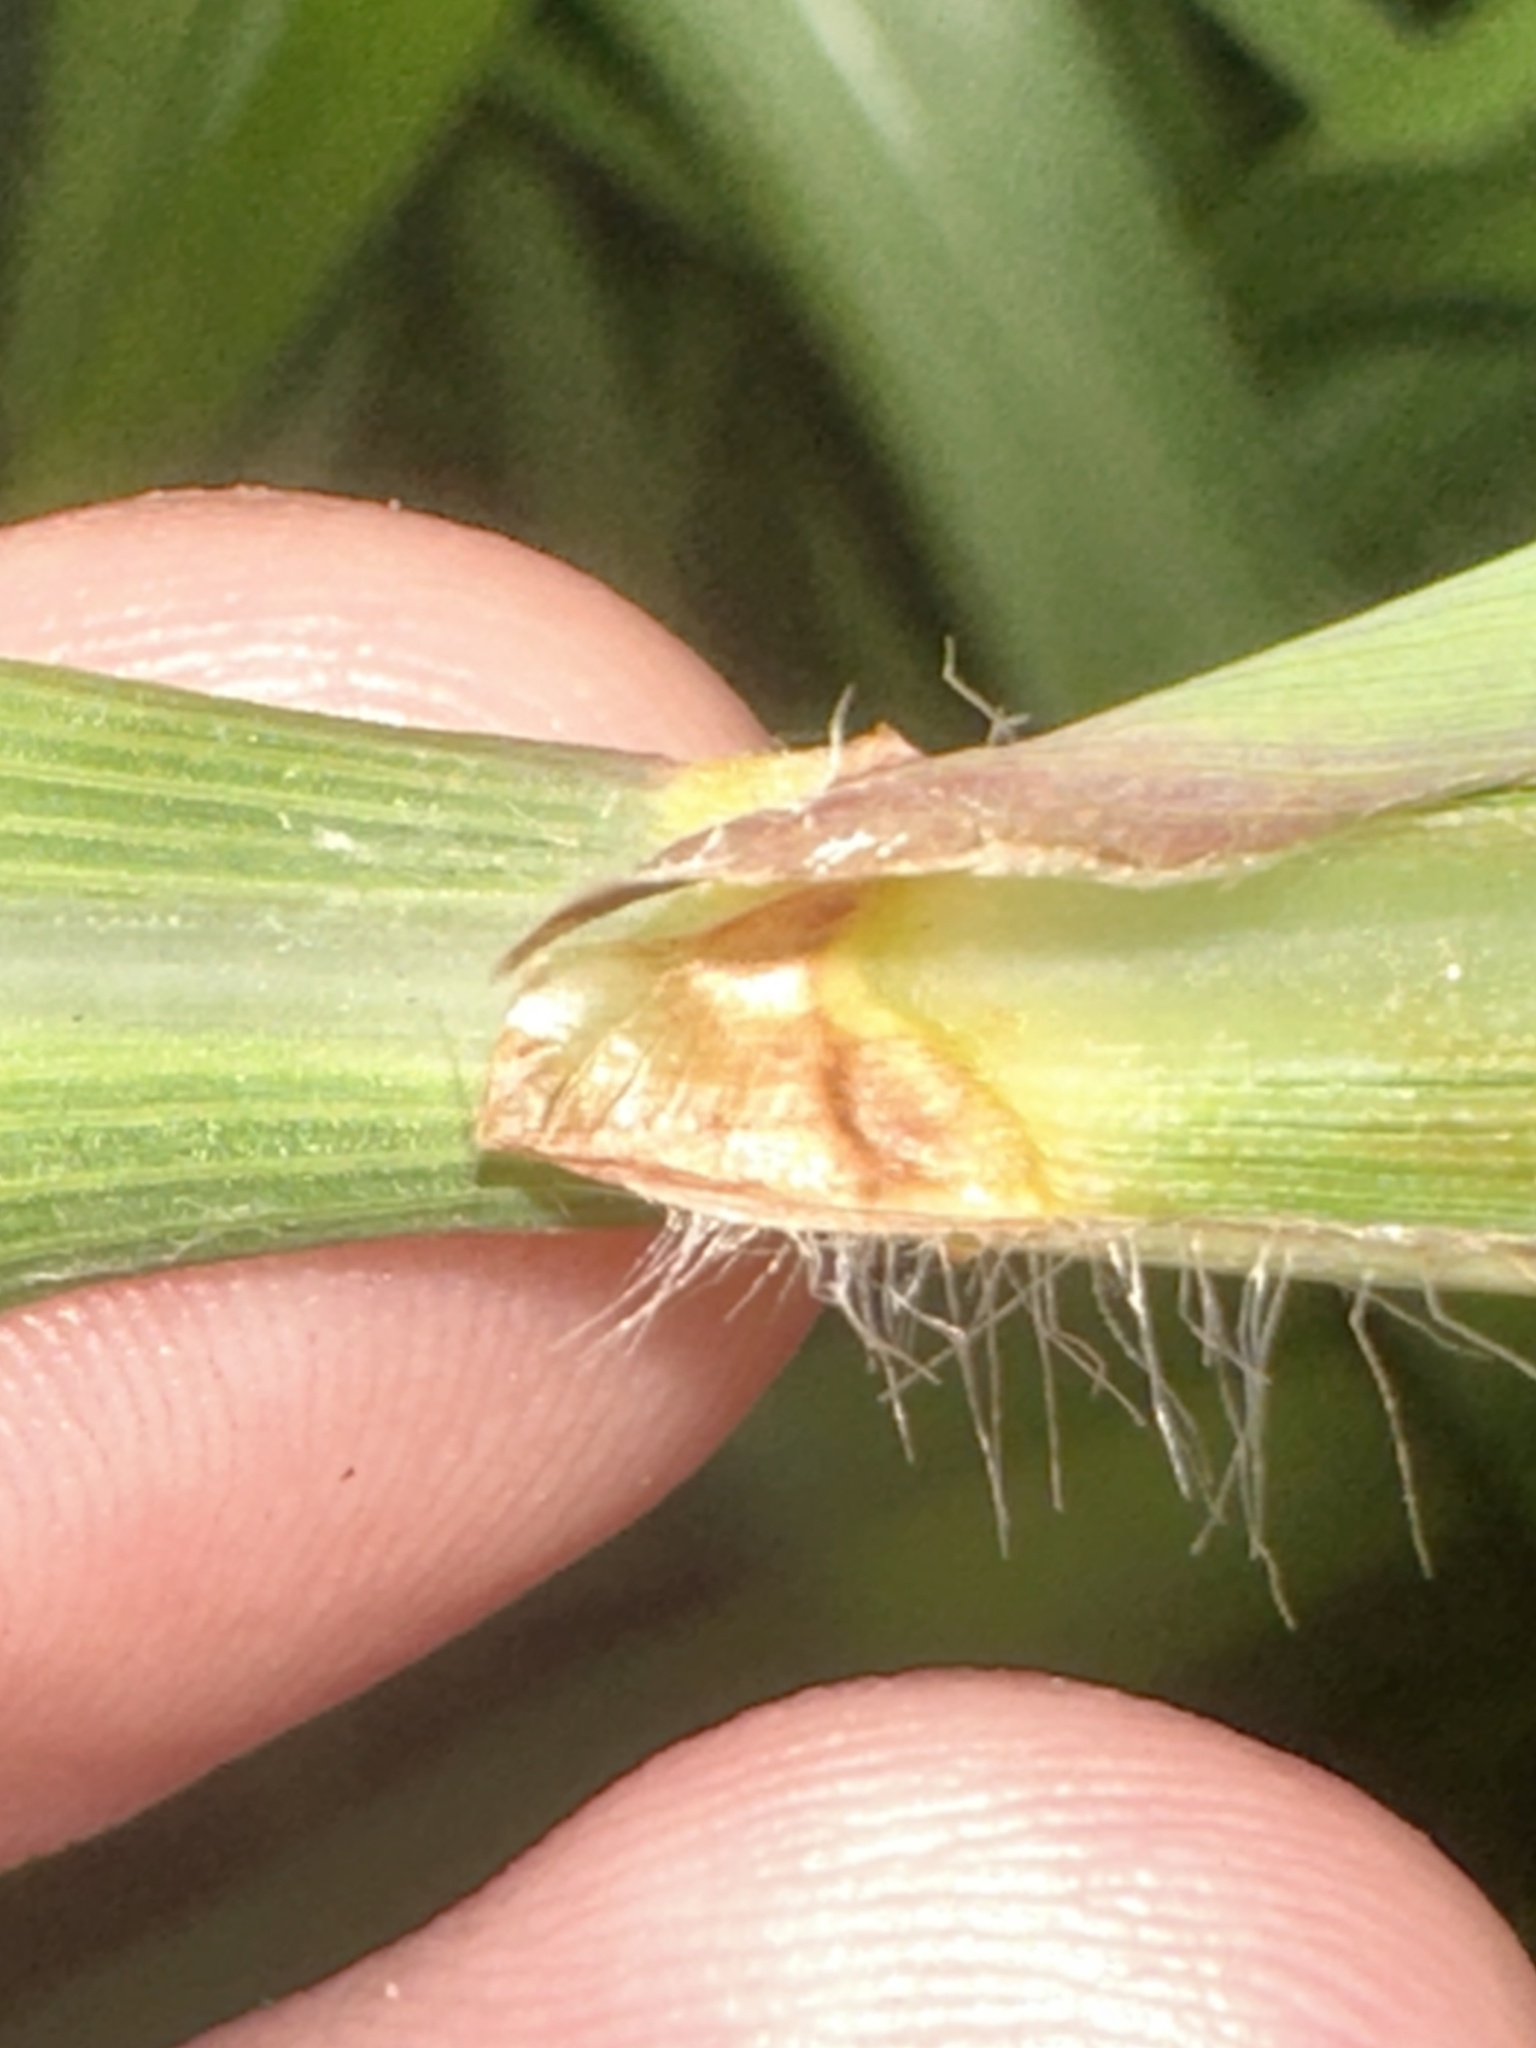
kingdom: Plantae
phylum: Tracheophyta
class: Liliopsida
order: Poales
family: Poaceae
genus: Ischaemum
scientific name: Ischaemum barbatum
